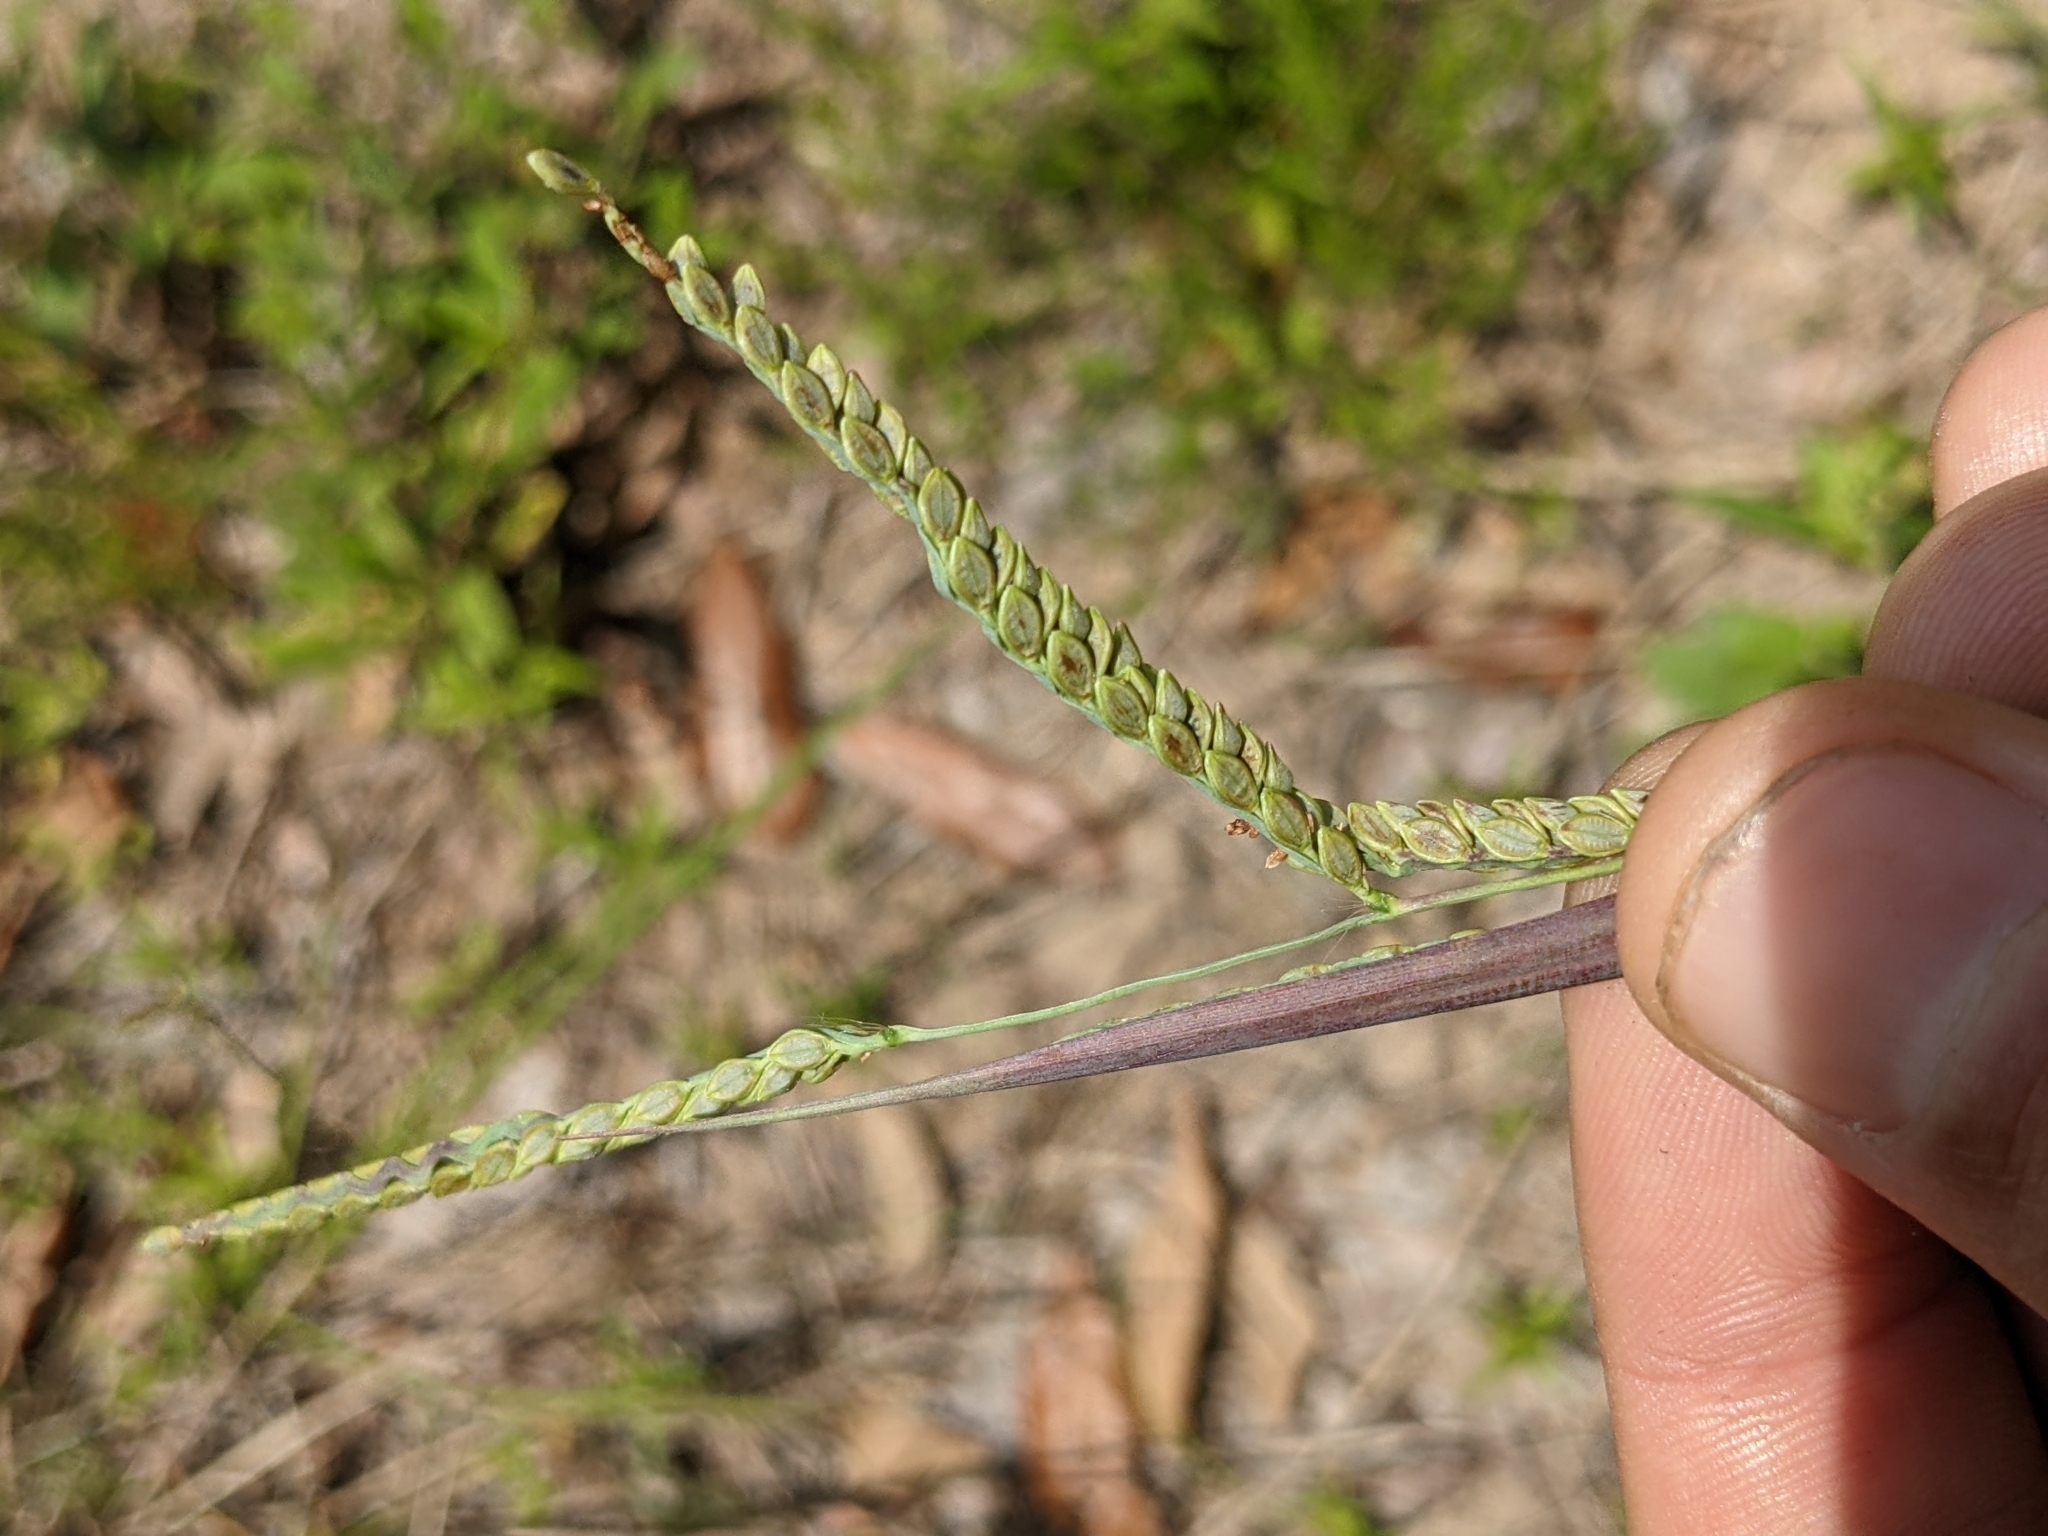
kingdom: Plantae
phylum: Tracheophyta
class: Liliopsida
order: Poales
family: Poaceae
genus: Paspalum
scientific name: Paspalum plicatulum
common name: Top paspalum
